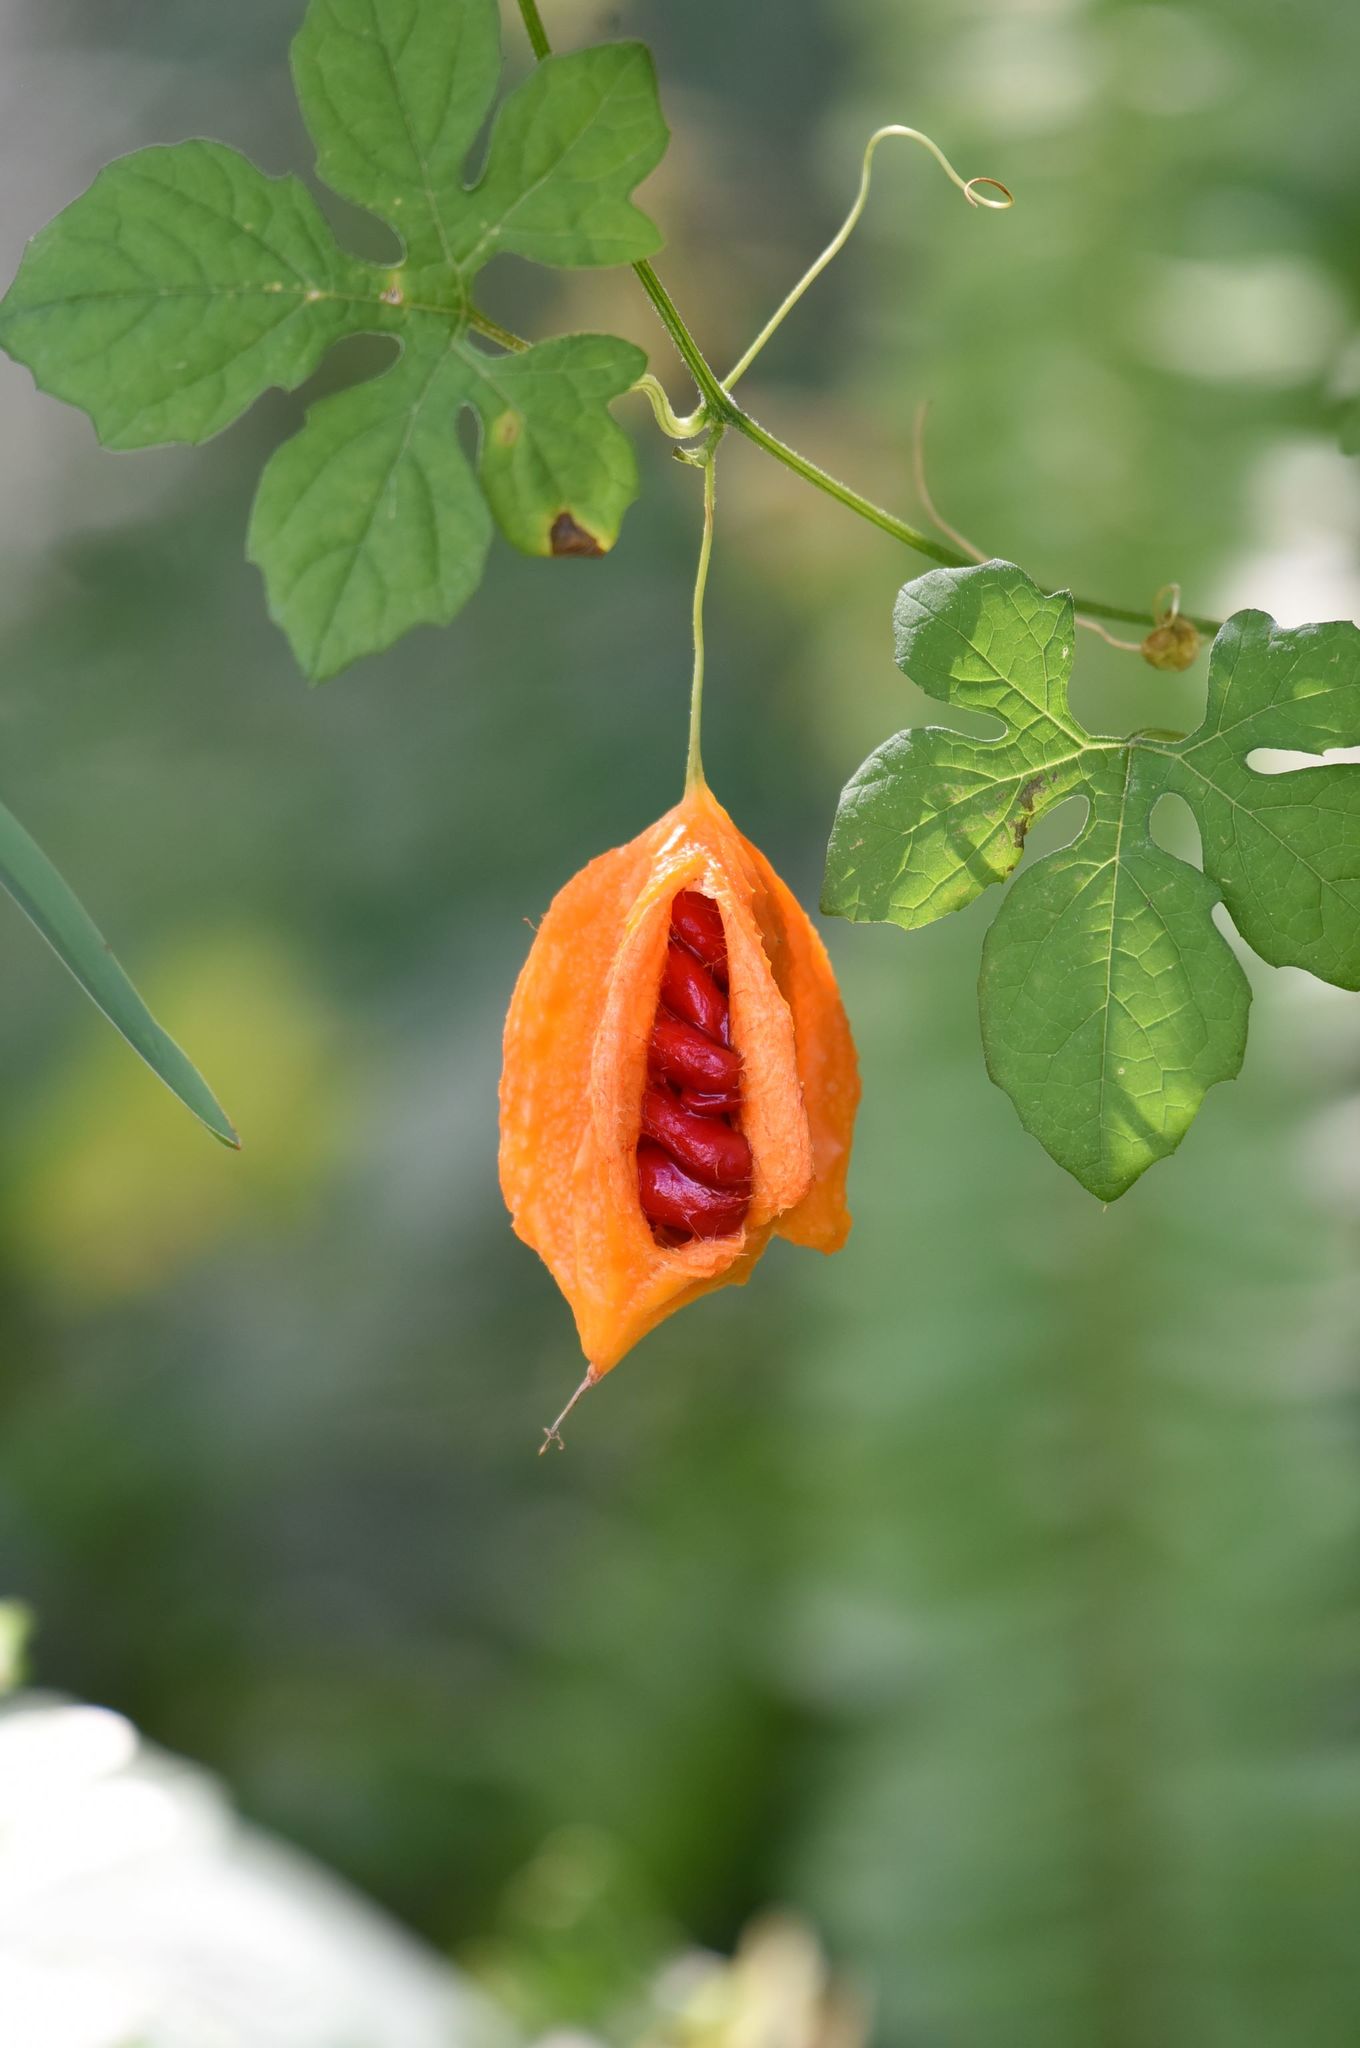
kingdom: Plantae
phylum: Tracheophyta
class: Magnoliopsida
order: Cucurbitales
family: Cucurbitaceae
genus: Momordica
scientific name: Momordica charantia
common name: Balsampear
